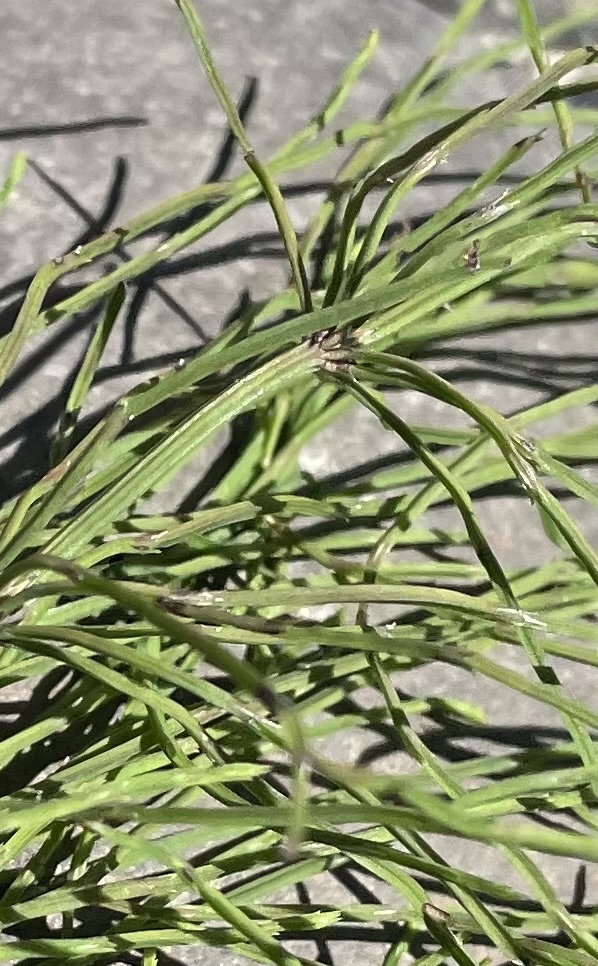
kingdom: Plantae
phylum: Tracheophyta
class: Polypodiopsida
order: Equisetales
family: Equisetaceae
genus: Equisetum
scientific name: Equisetum arvense
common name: Field horsetail
